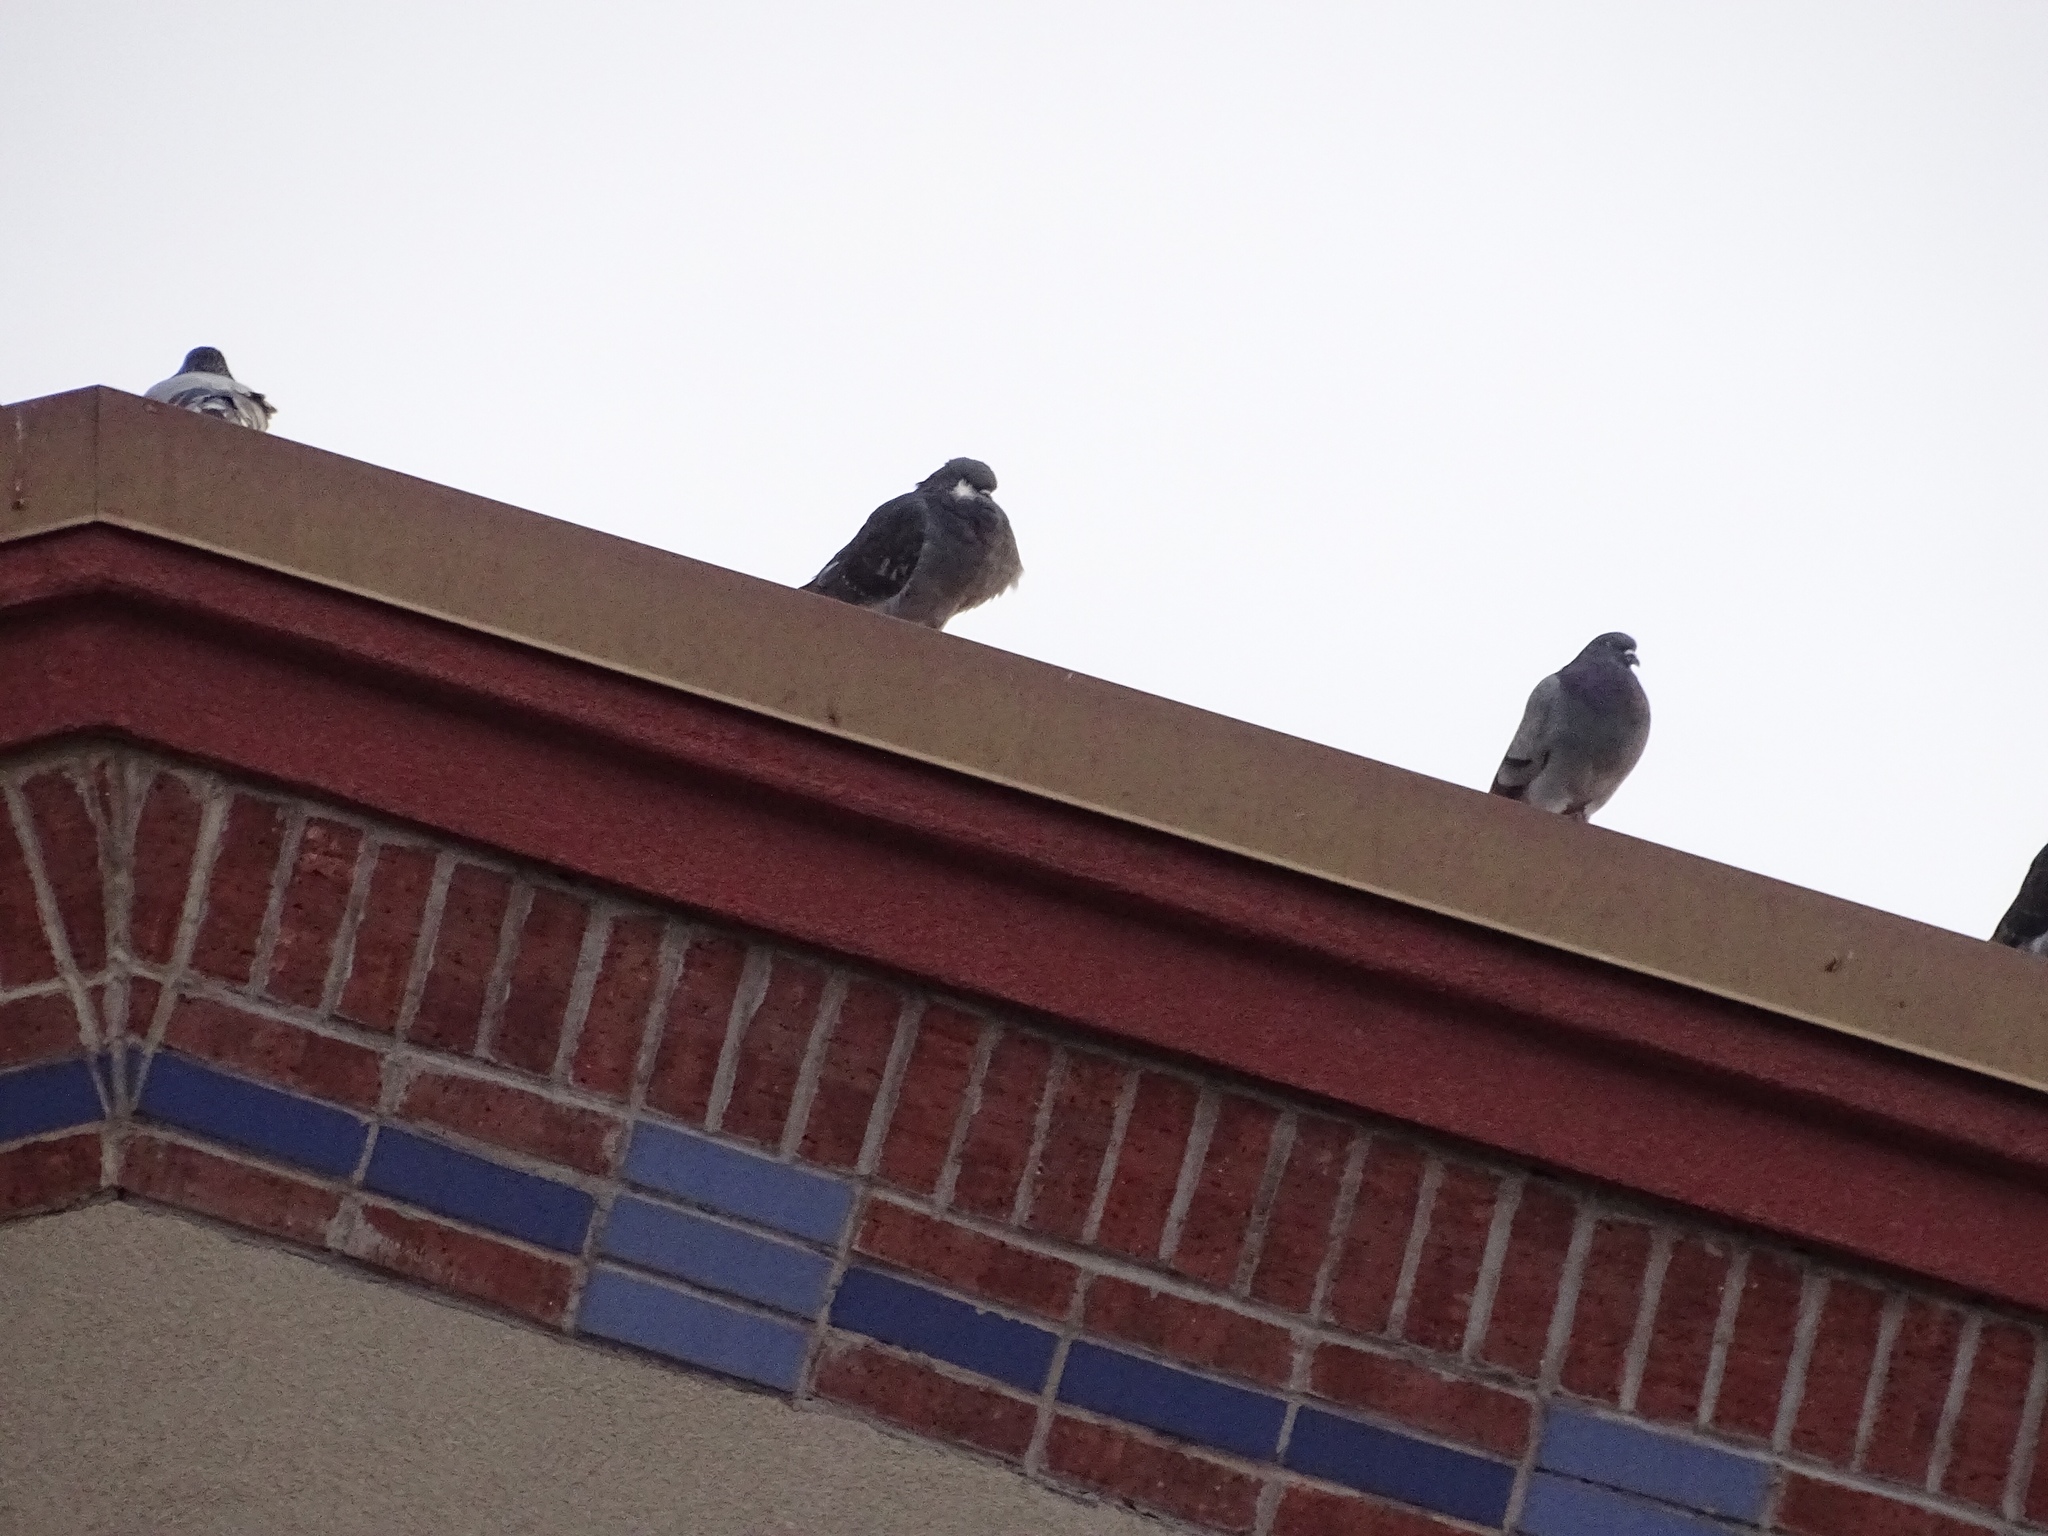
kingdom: Animalia
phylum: Chordata
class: Aves
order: Columbiformes
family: Columbidae
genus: Columba
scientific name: Columba livia
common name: Rock pigeon
